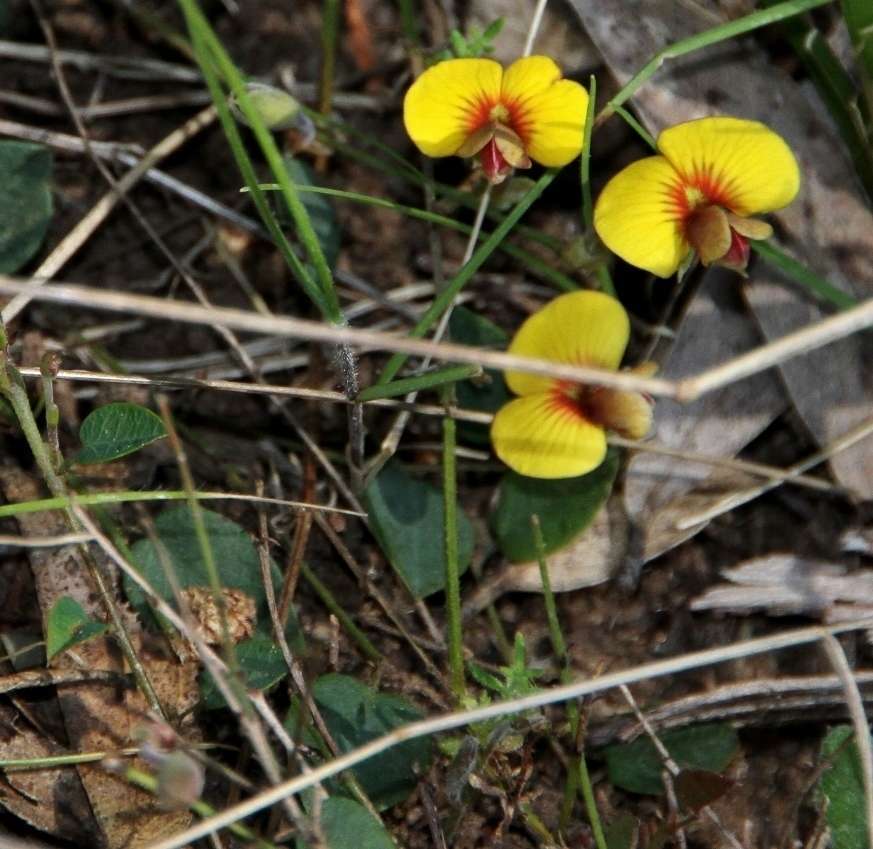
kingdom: Plantae
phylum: Tracheophyta
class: Magnoliopsida
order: Fabales
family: Fabaceae
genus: Bossiaea
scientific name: Bossiaea prostrata
